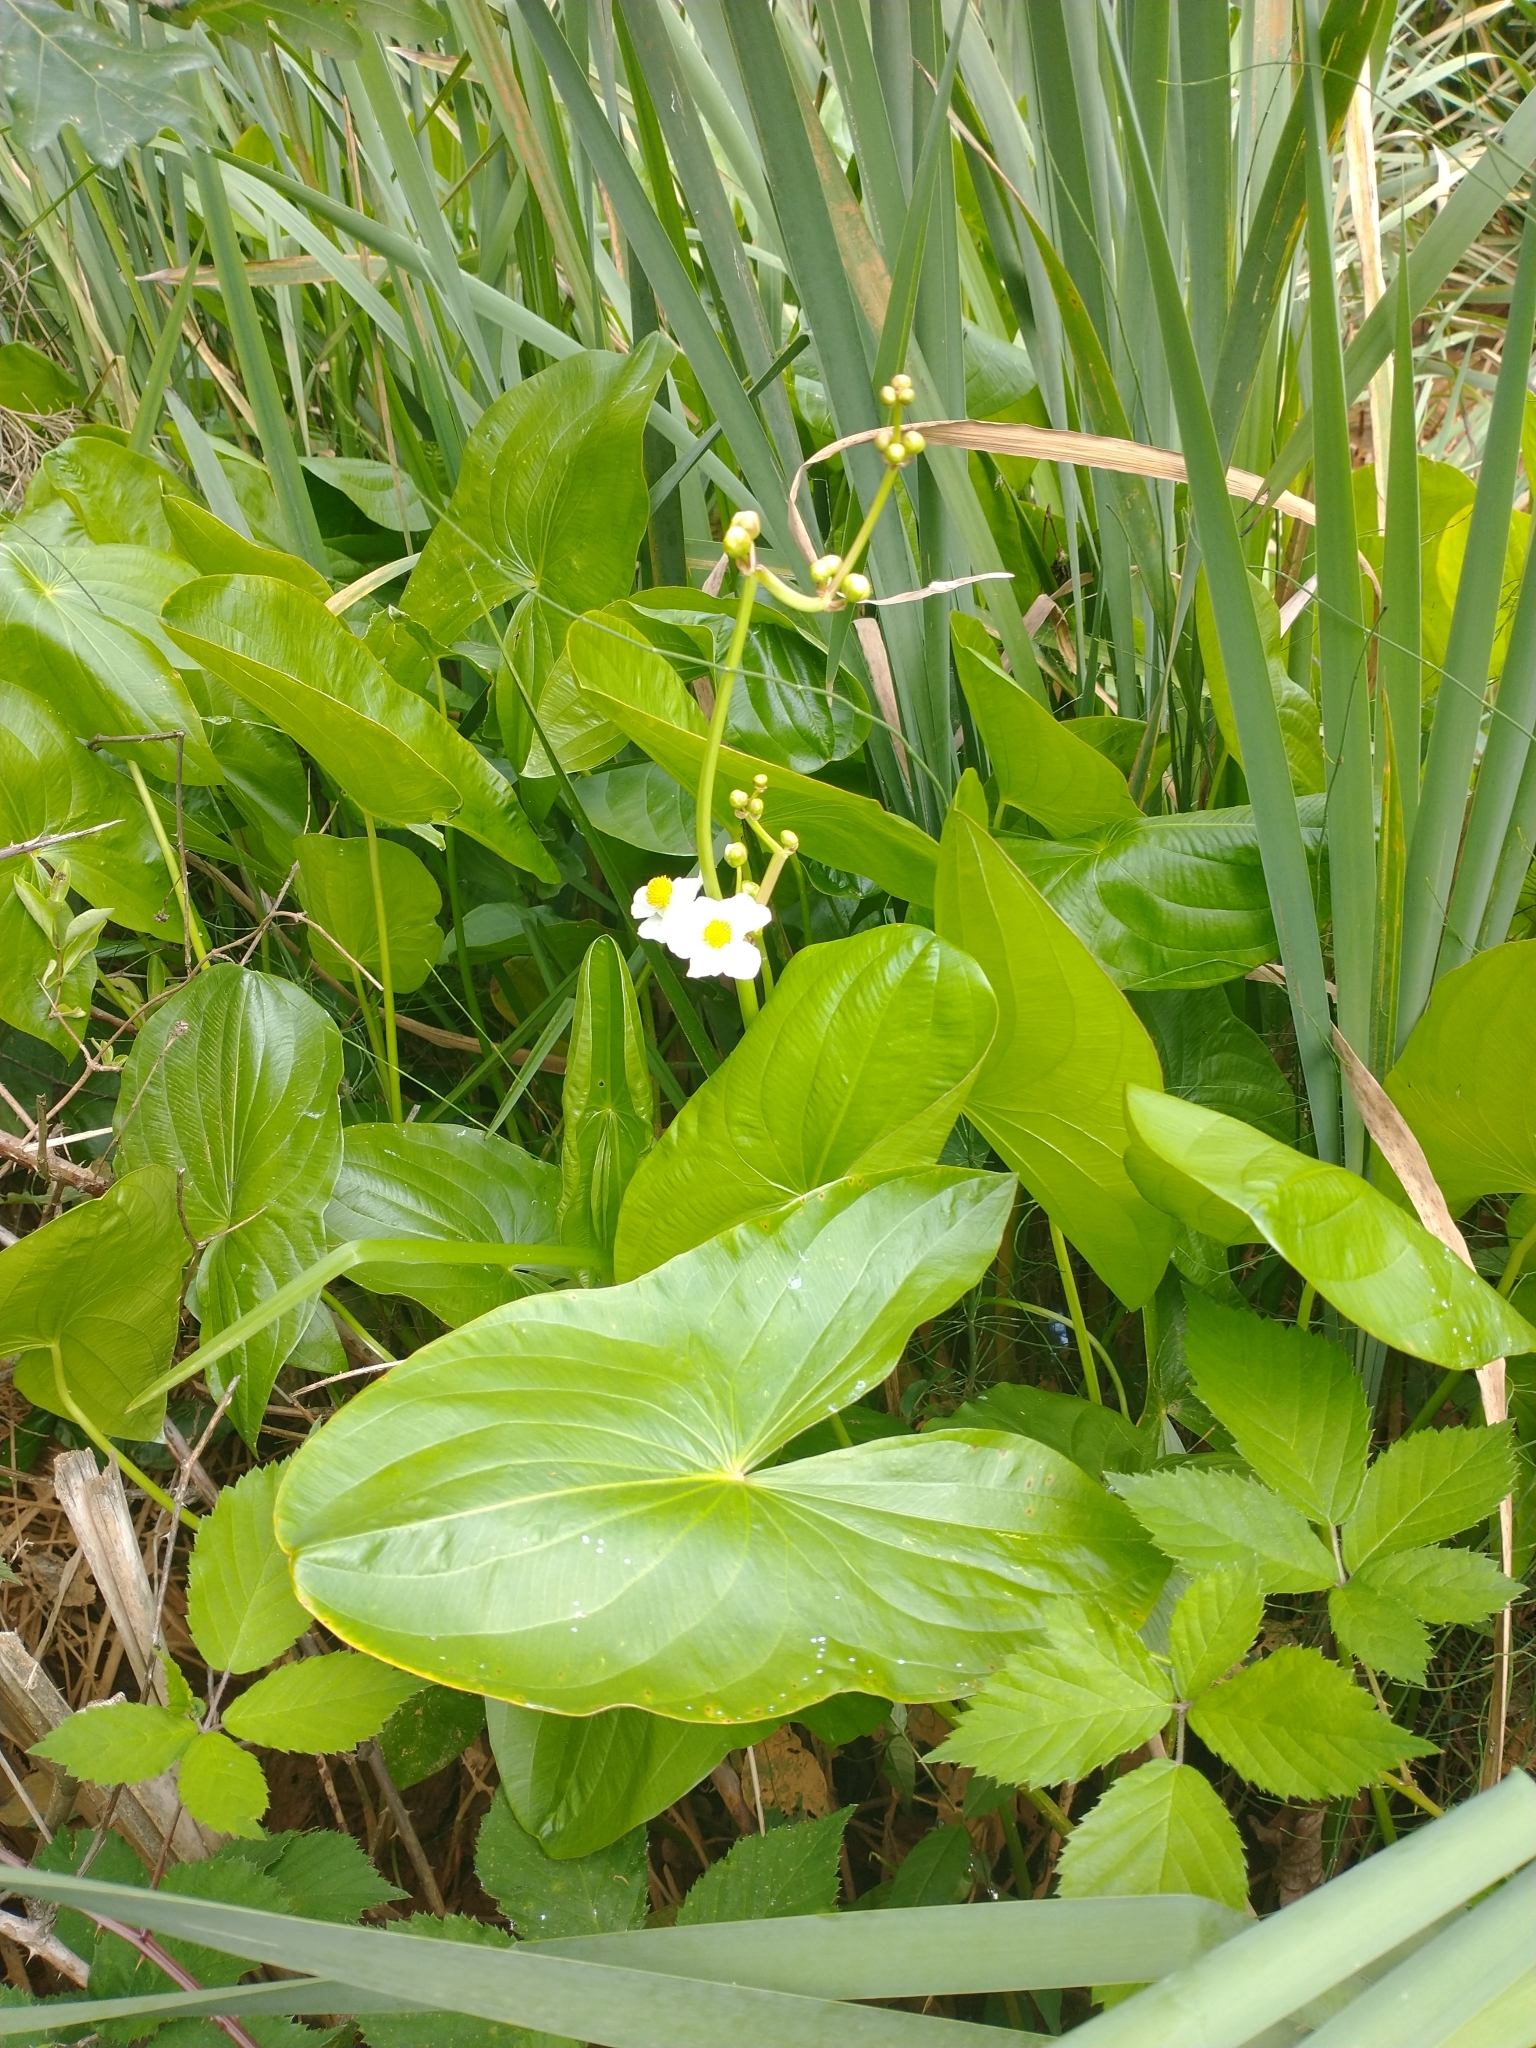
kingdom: Plantae
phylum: Tracheophyta
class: Liliopsida
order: Alismatales
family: Alismataceae
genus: Sagittaria
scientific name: Sagittaria latifolia
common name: Duck-potato
